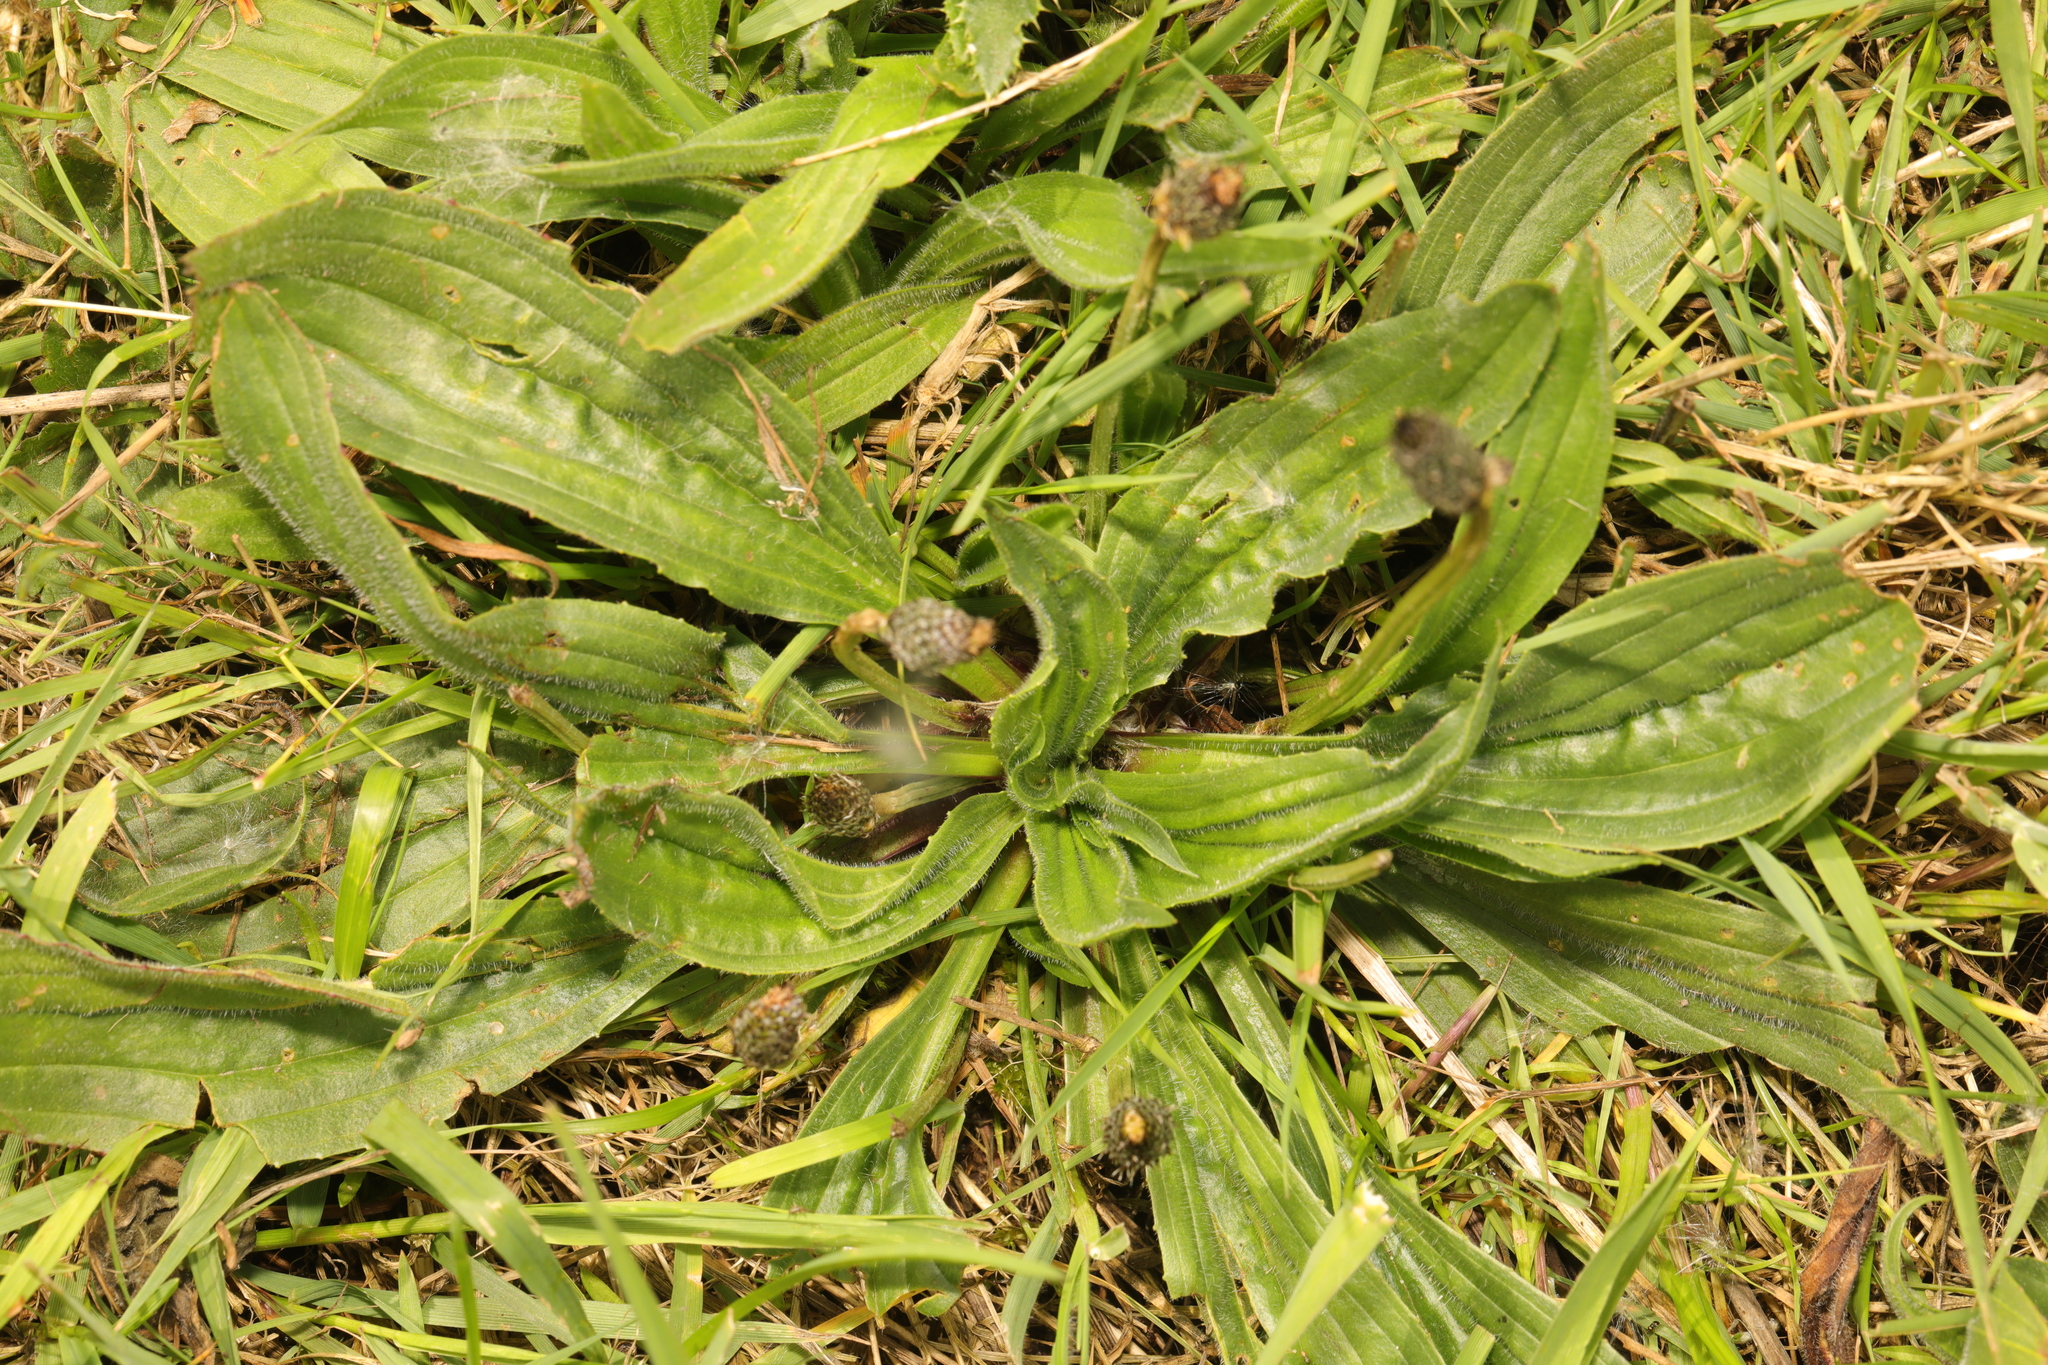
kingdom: Plantae
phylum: Tracheophyta
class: Magnoliopsida
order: Lamiales
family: Plantaginaceae
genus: Plantago
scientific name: Plantago lanceolata
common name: Ribwort plantain
